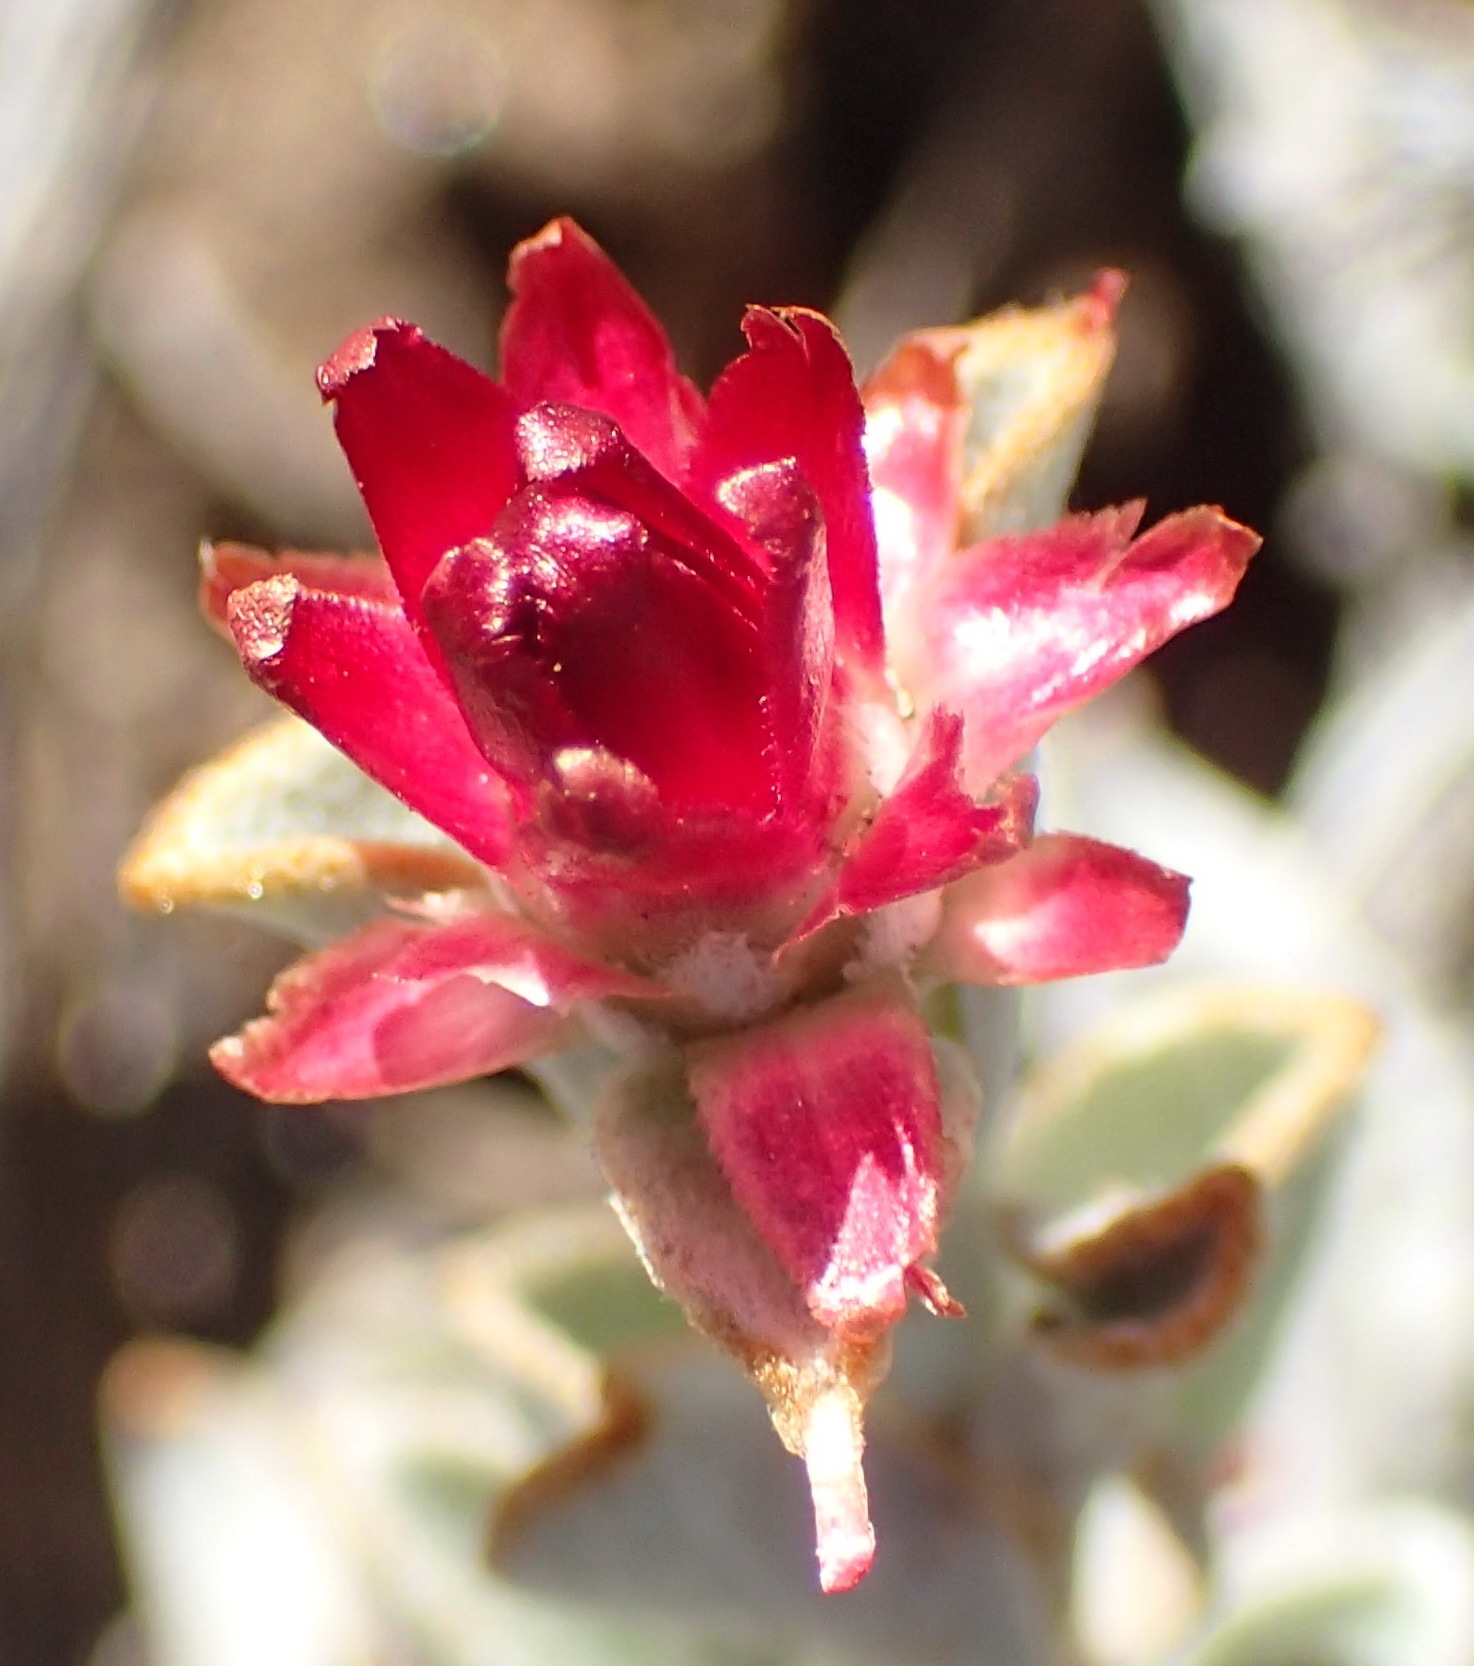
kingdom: Plantae
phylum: Tracheophyta
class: Magnoliopsida
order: Asterales
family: Asteraceae
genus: Syncarpha
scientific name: Syncarpha dregeana
